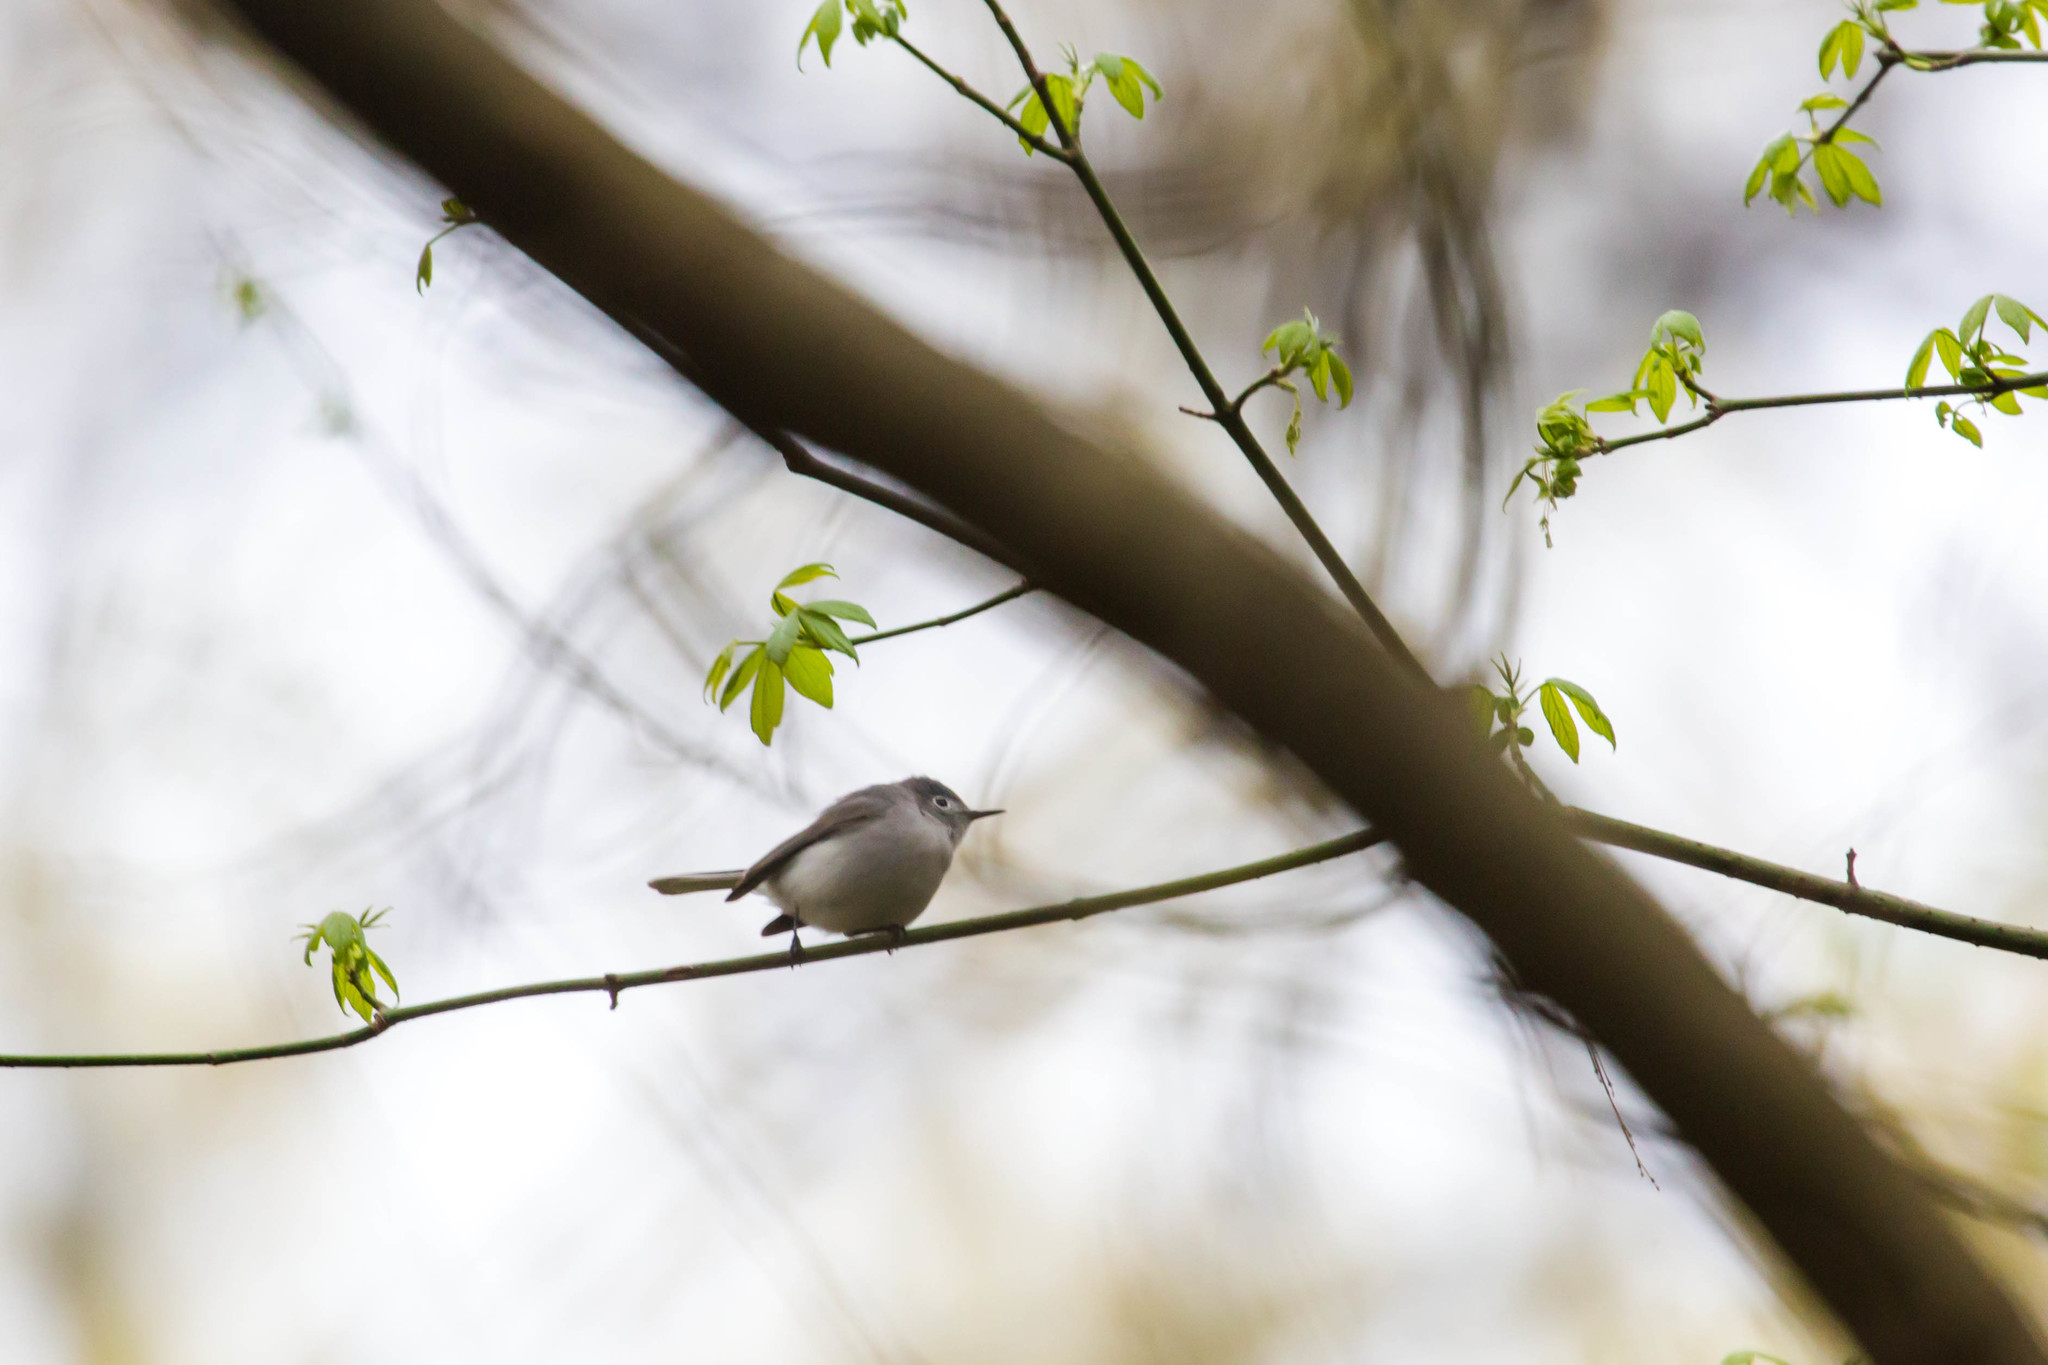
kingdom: Animalia
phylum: Chordata
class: Aves
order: Passeriformes
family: Polioptilidae
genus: Polioptila
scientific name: Polioptila caerulea
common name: Blue-gray gnatcatcher
